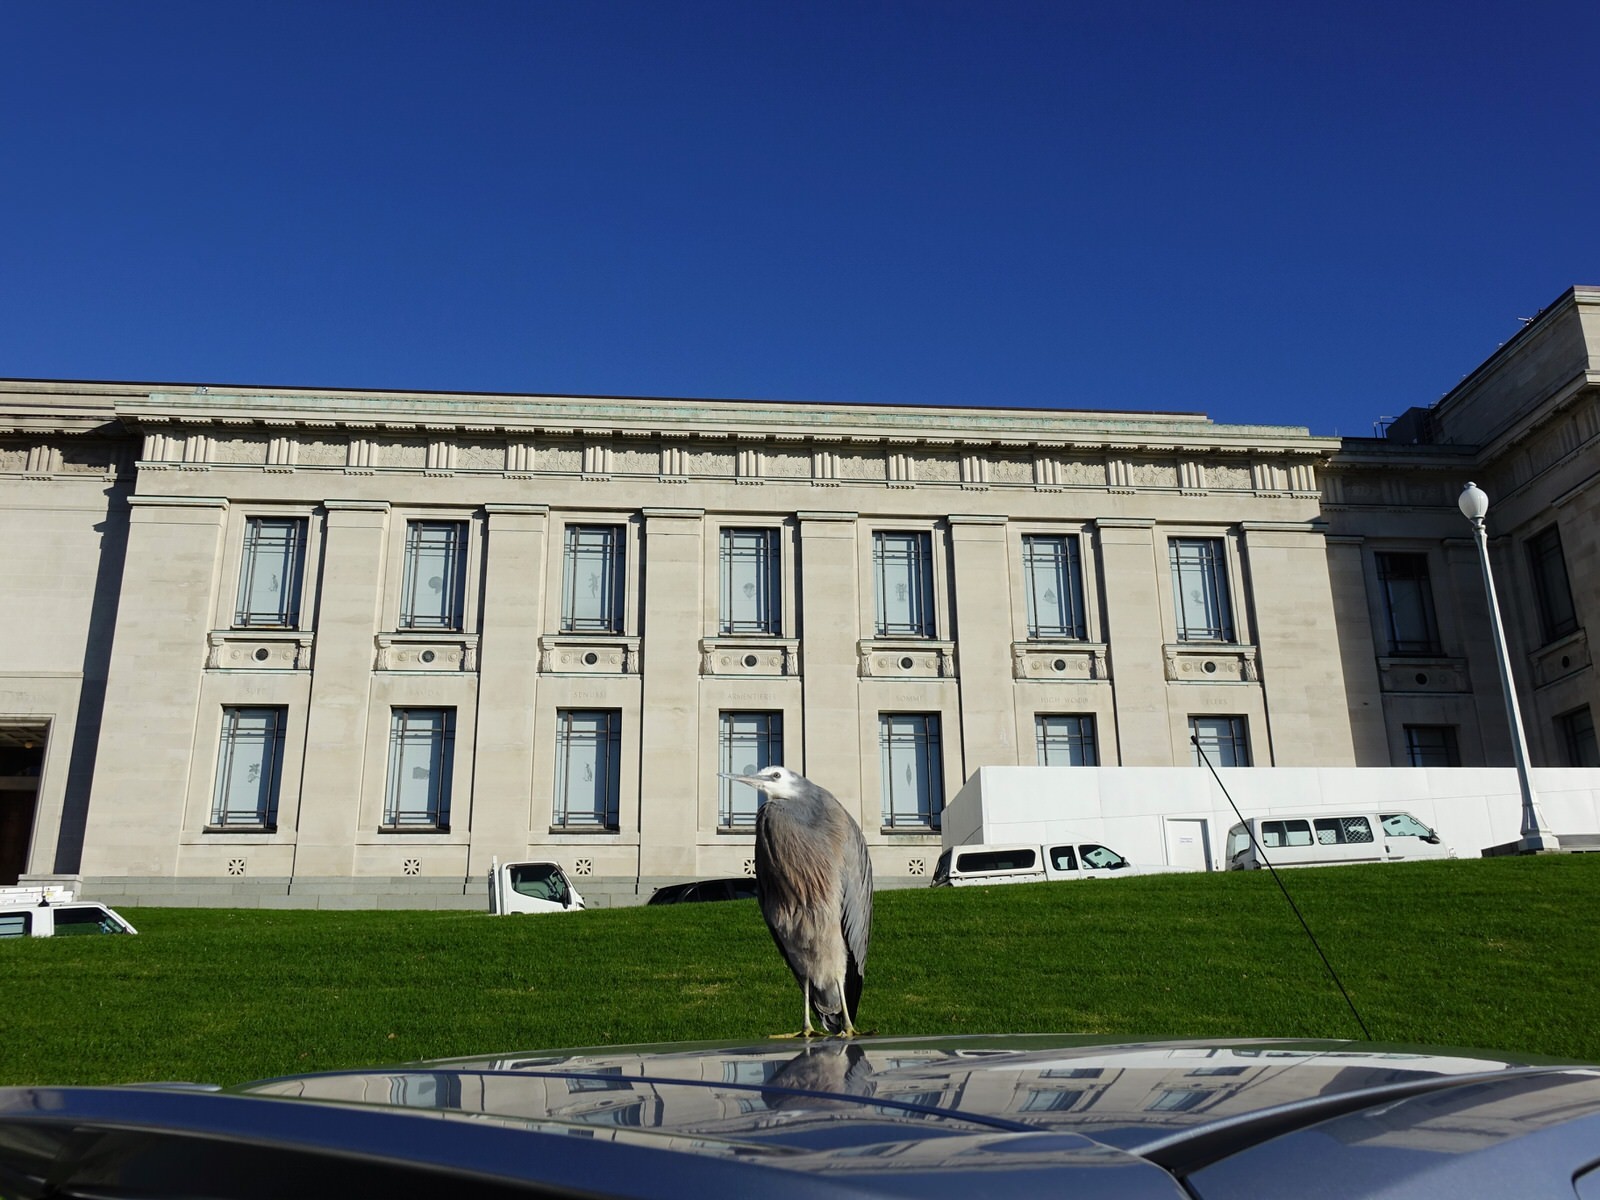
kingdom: Animalia
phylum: Chordata
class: Aves
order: Pelecaniformes
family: Ardeidae
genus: Egretta
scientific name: Egretta novaehollandiae
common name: White-faced heron
